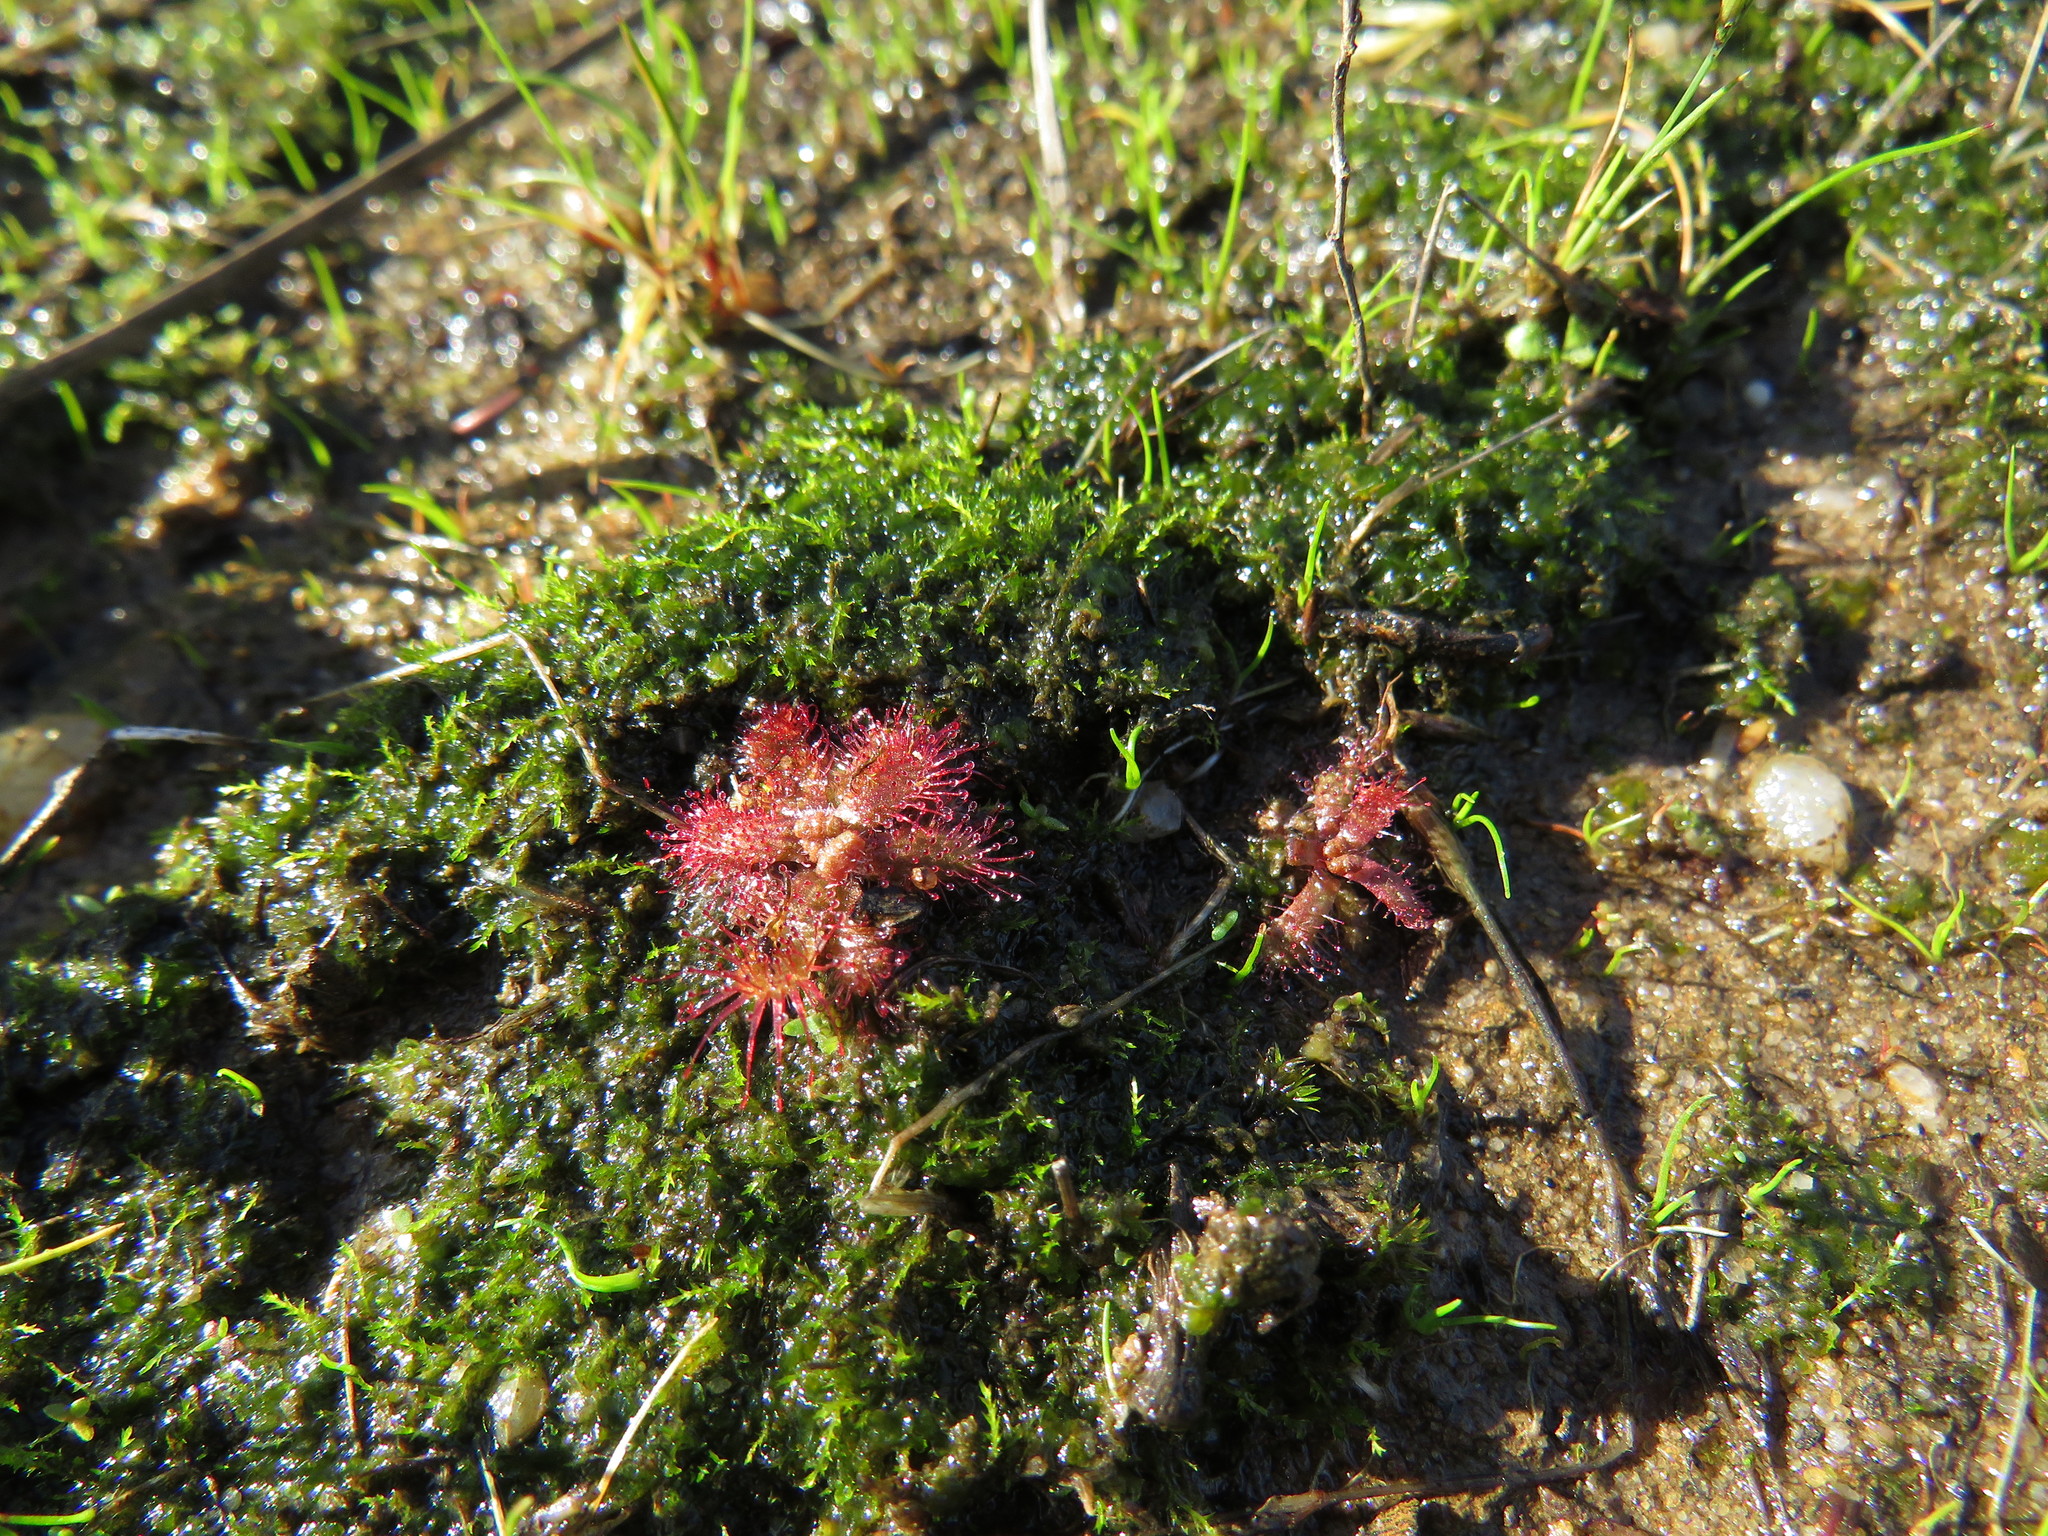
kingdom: Plantae
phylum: Tracheophyta
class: Magnoliopsida
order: Caryophyllales
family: Droseraceae
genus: Drosera
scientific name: Drosera trinervia
